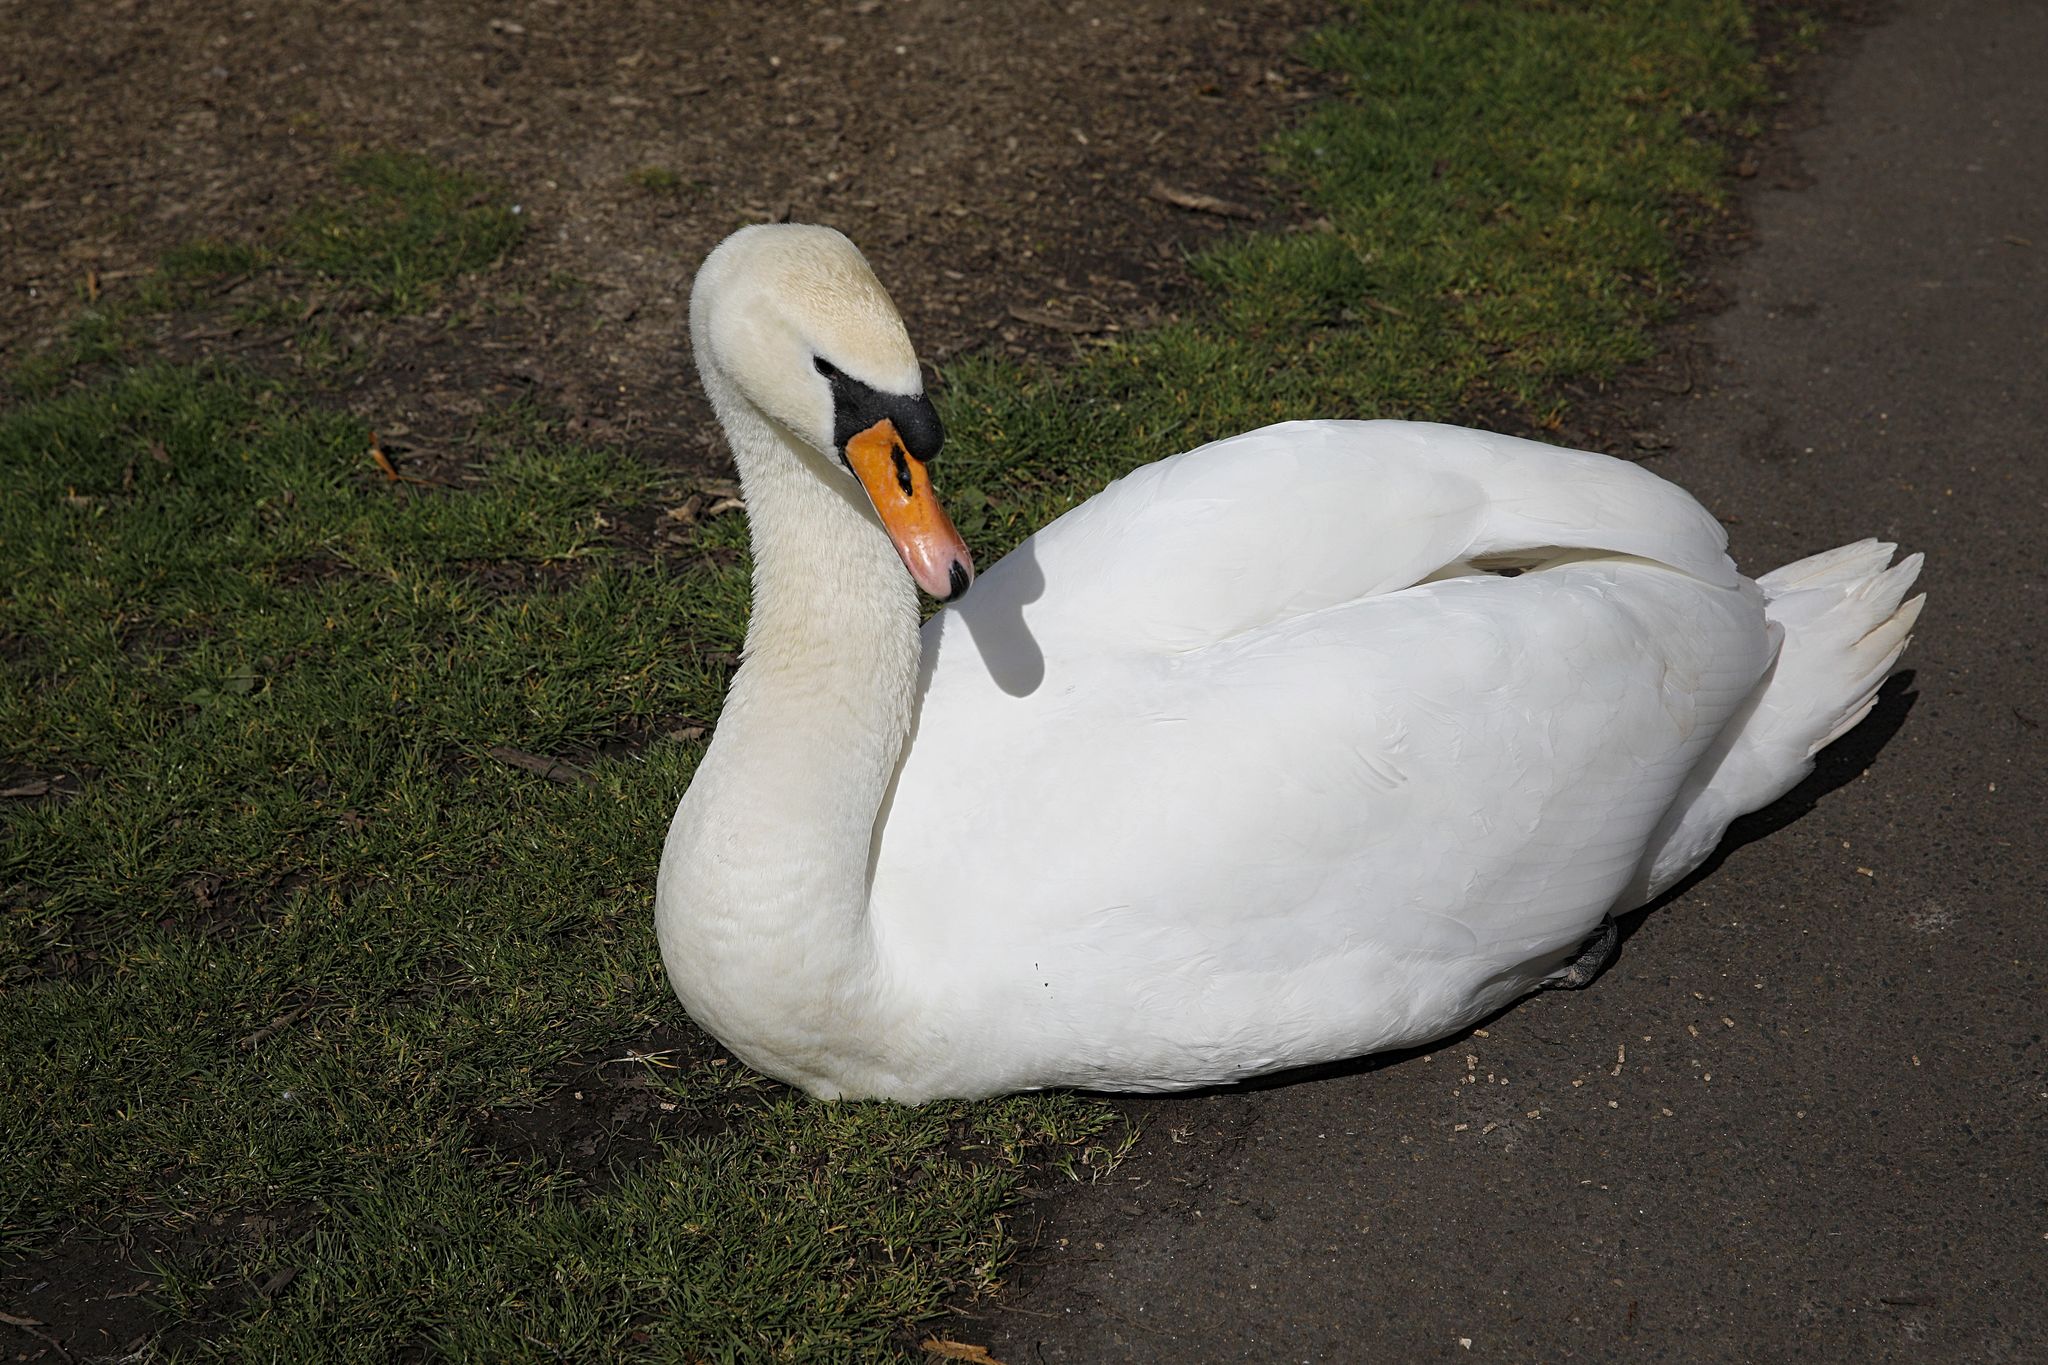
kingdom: Animalia
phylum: Chordata
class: Aves
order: Anseriformes
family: Anatidae
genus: Cygnus
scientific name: Cygnus olor
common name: Mute swan
